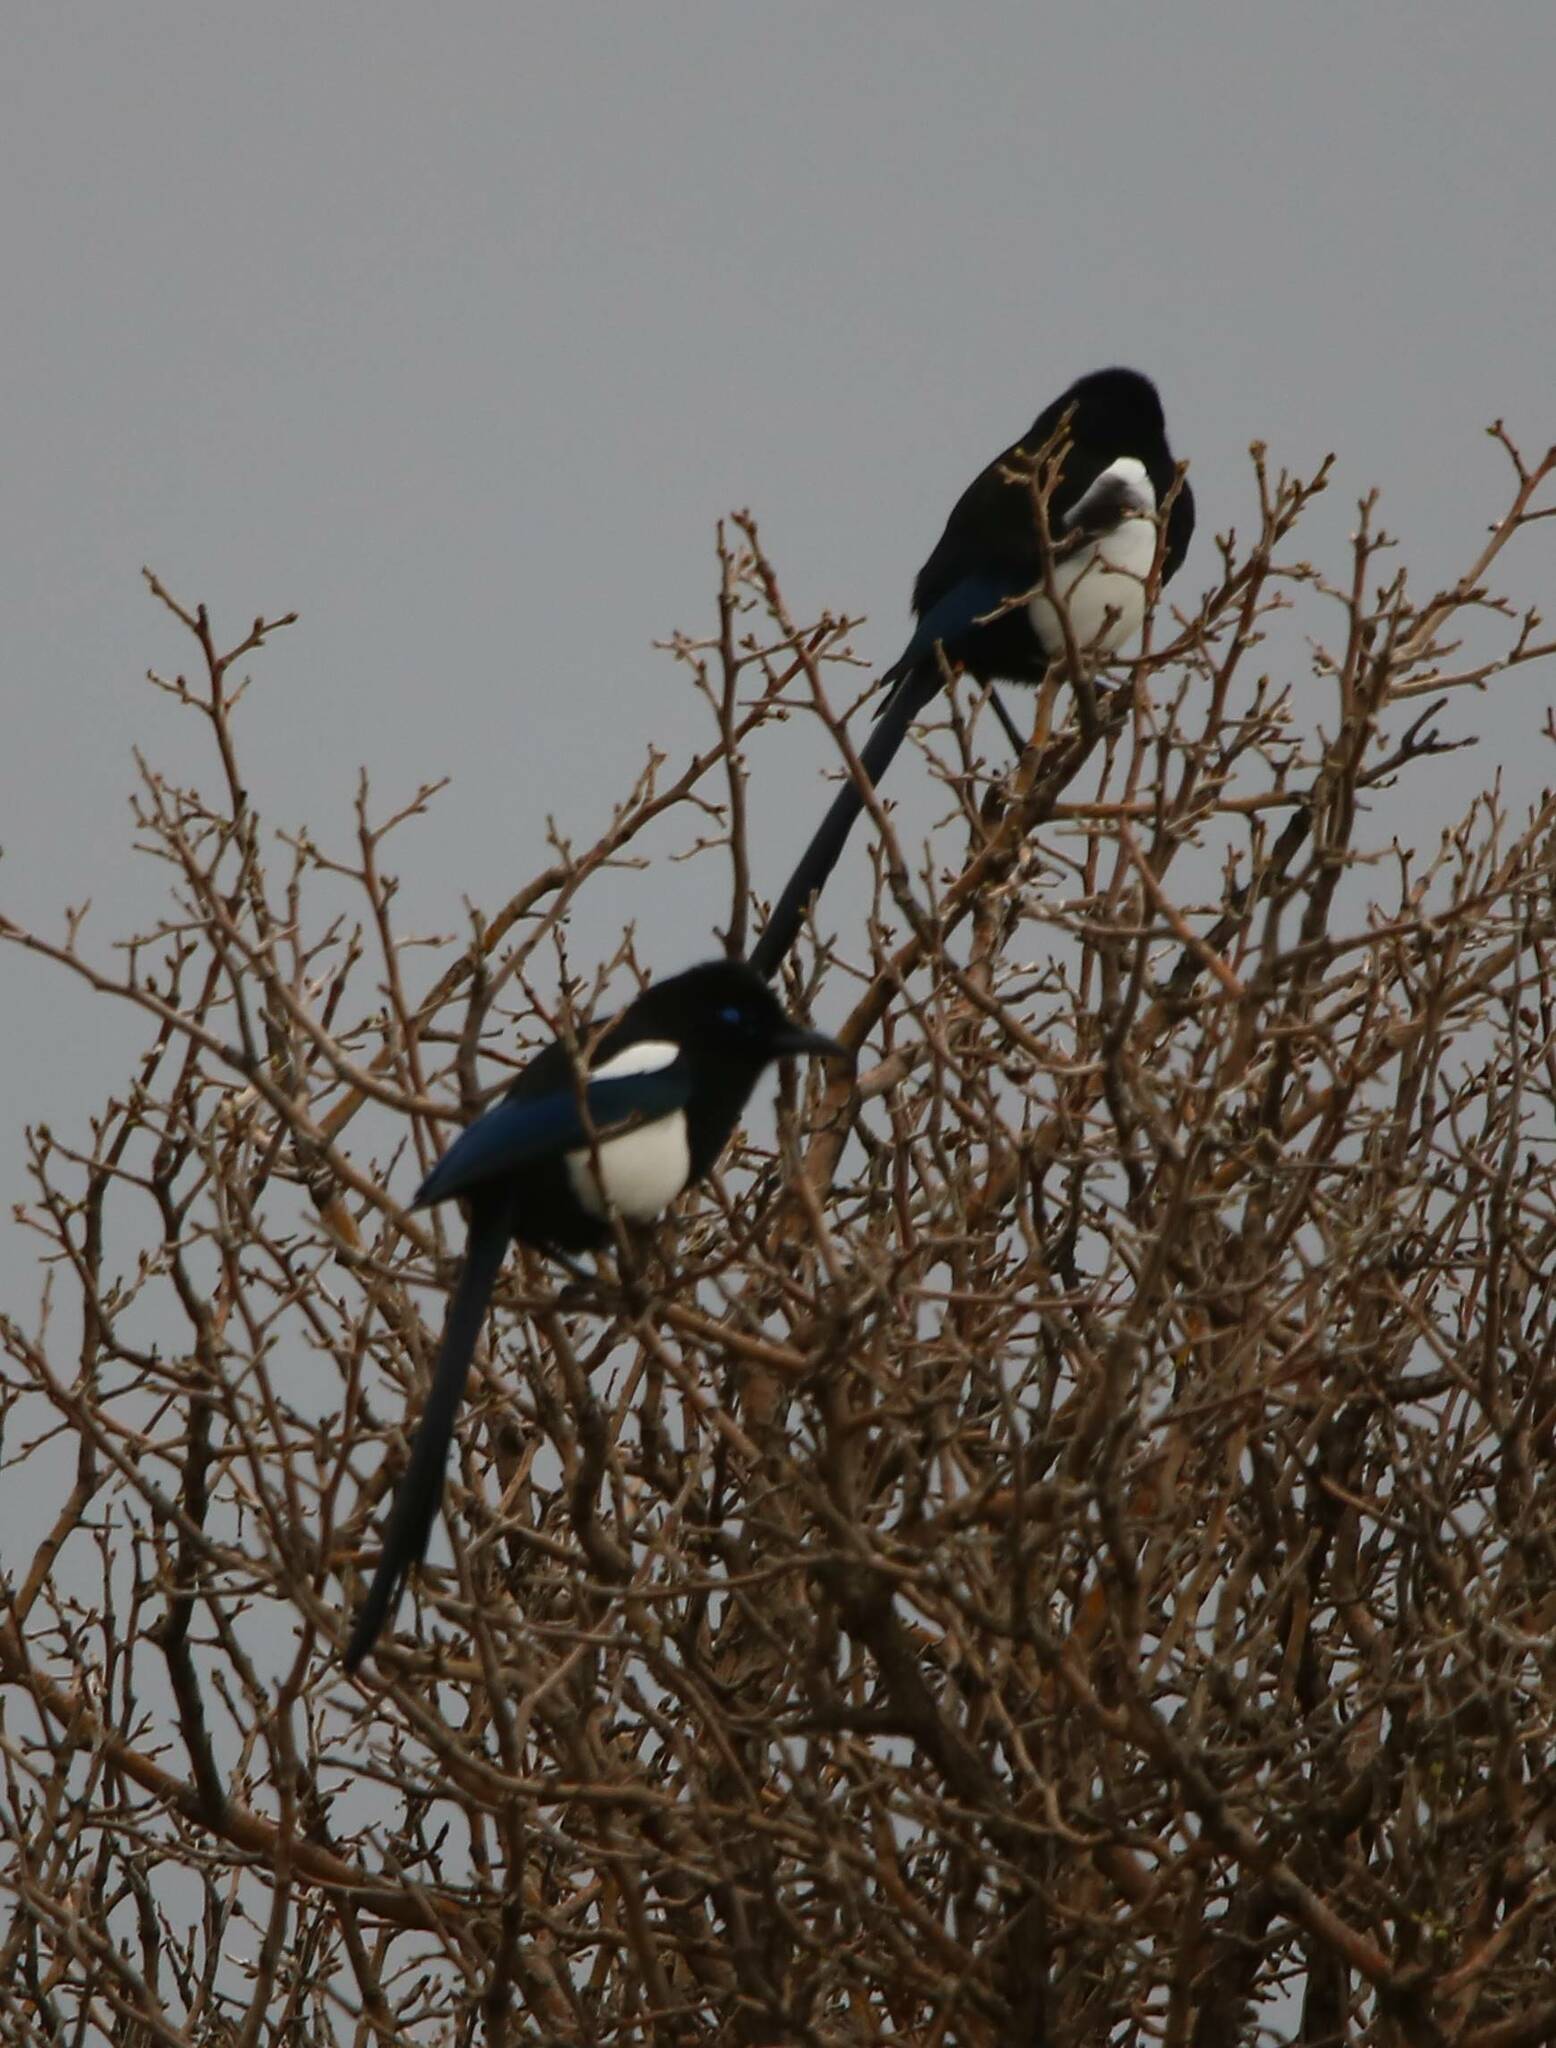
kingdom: Animalia
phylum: Chordata
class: Aves
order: Passeriformes
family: Corvidae
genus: Pica
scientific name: Pica mauritanica
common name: Maghreb magpie
